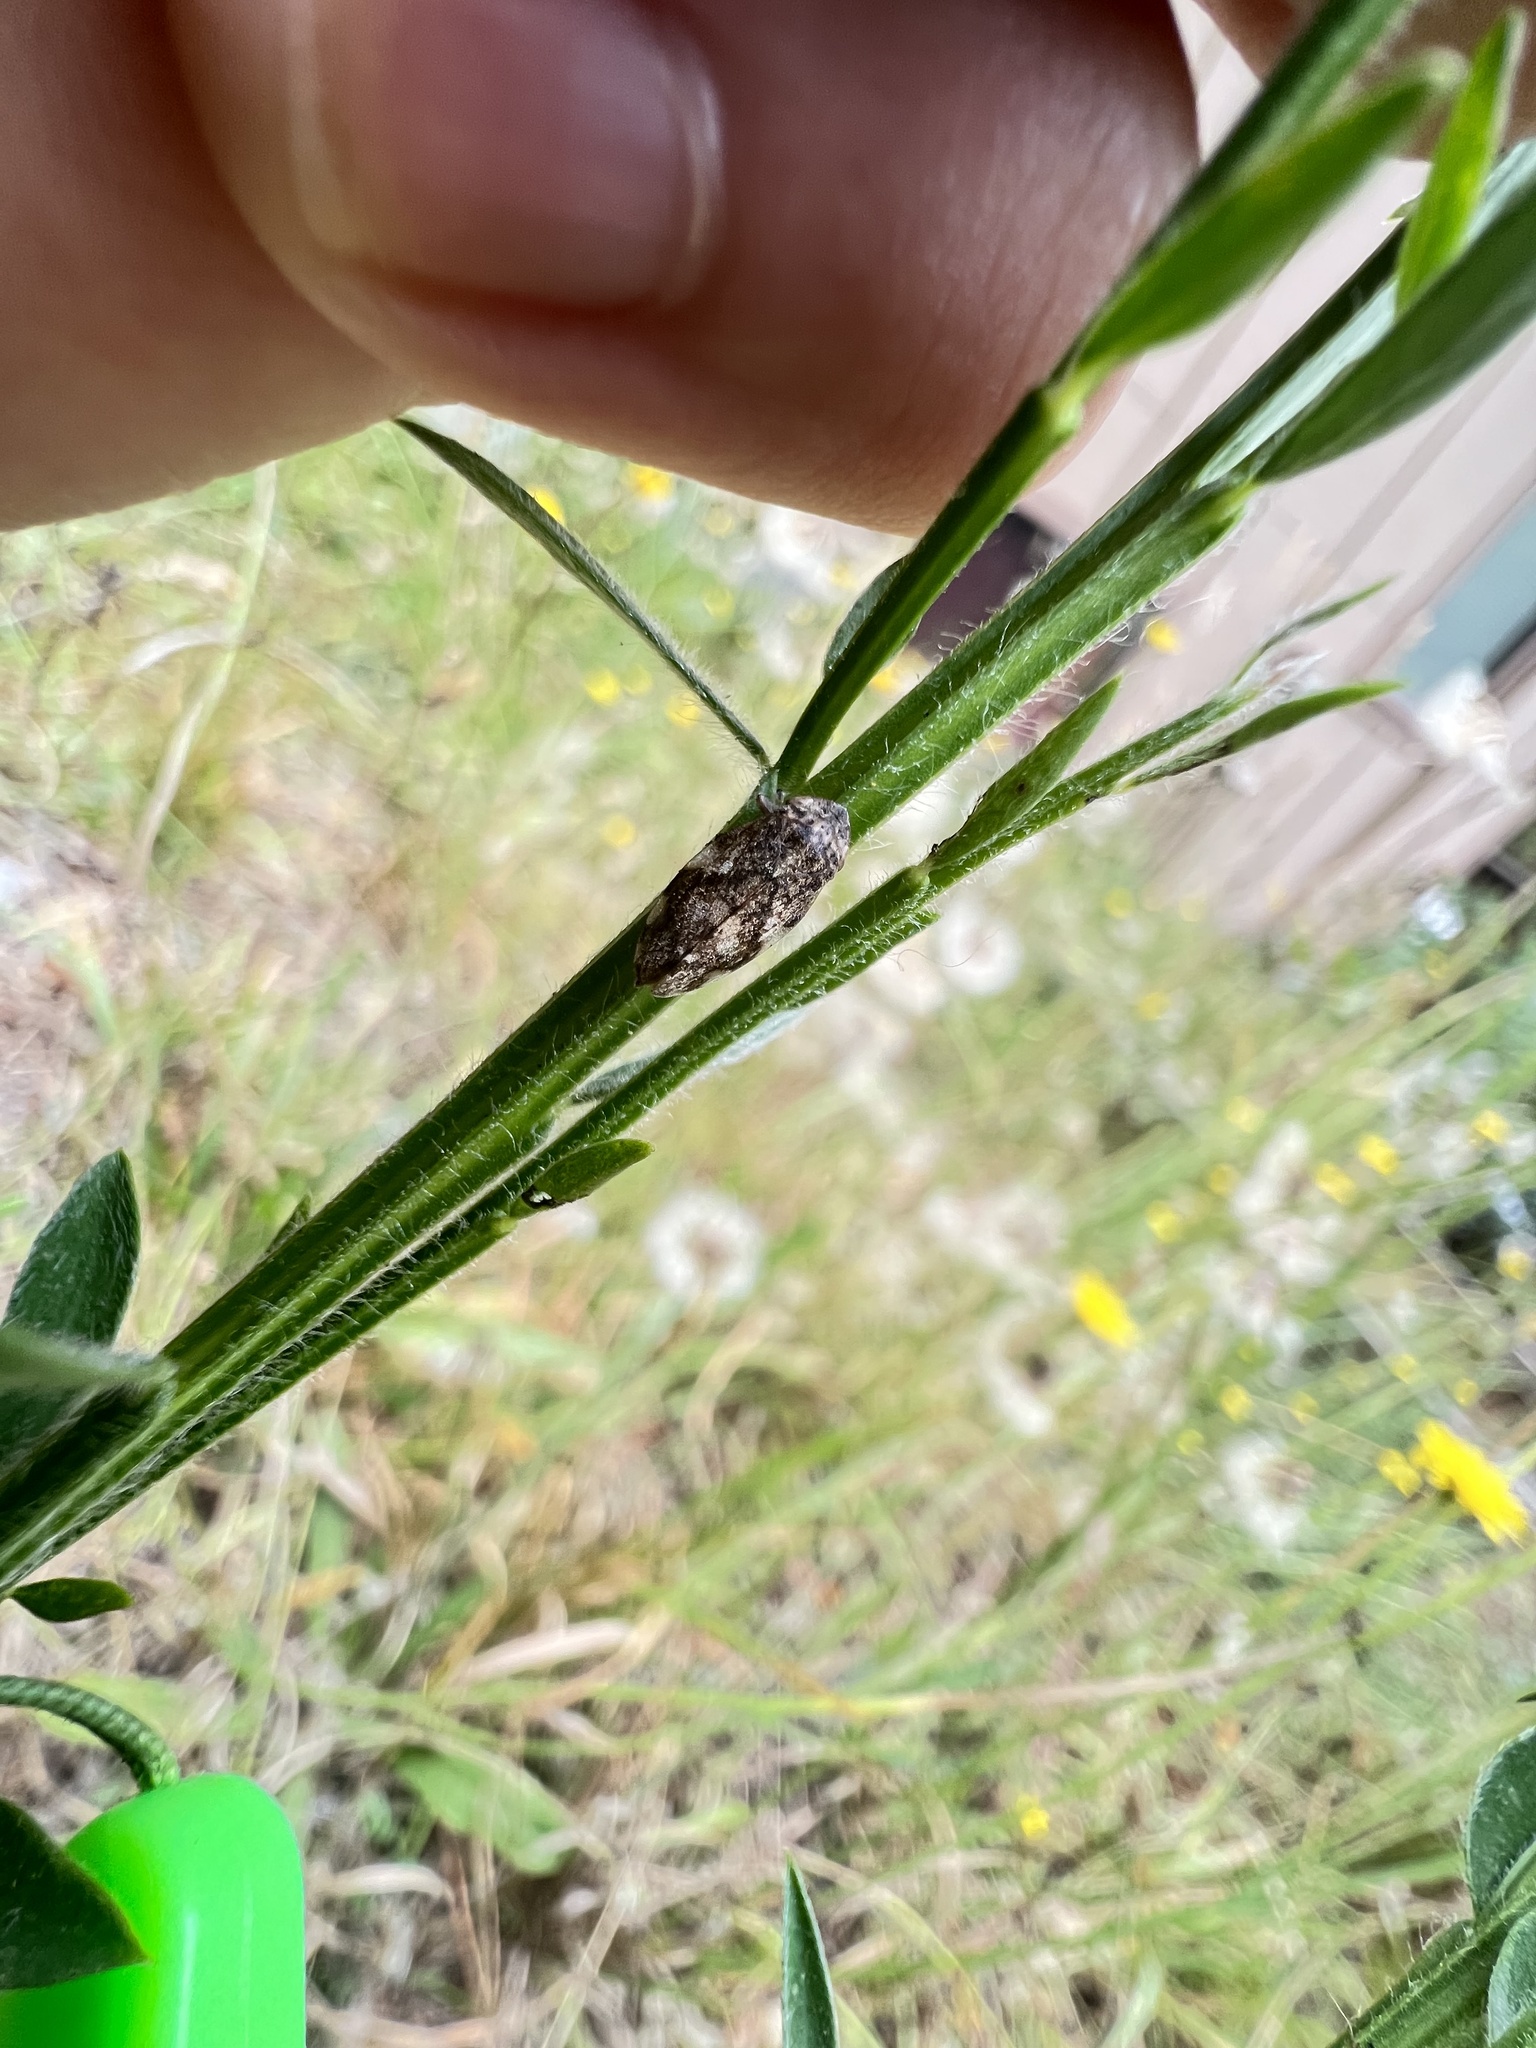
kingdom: Animalia
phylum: Arthropoda
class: Insecta
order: Hemiptera
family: Aphrophoridae
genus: Philaenus
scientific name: Philaenus spumarius
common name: Meadow spittlebug
